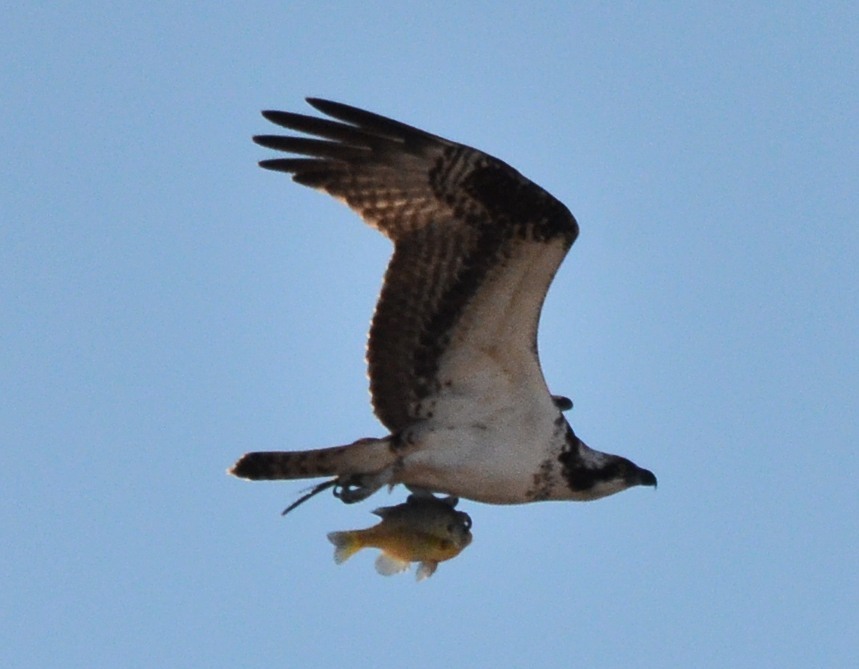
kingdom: Animalia
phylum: Chordata
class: Aves
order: Accipitriformes
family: Pandionidae
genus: Pandion
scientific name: Pandion haliaetus
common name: Osprey
